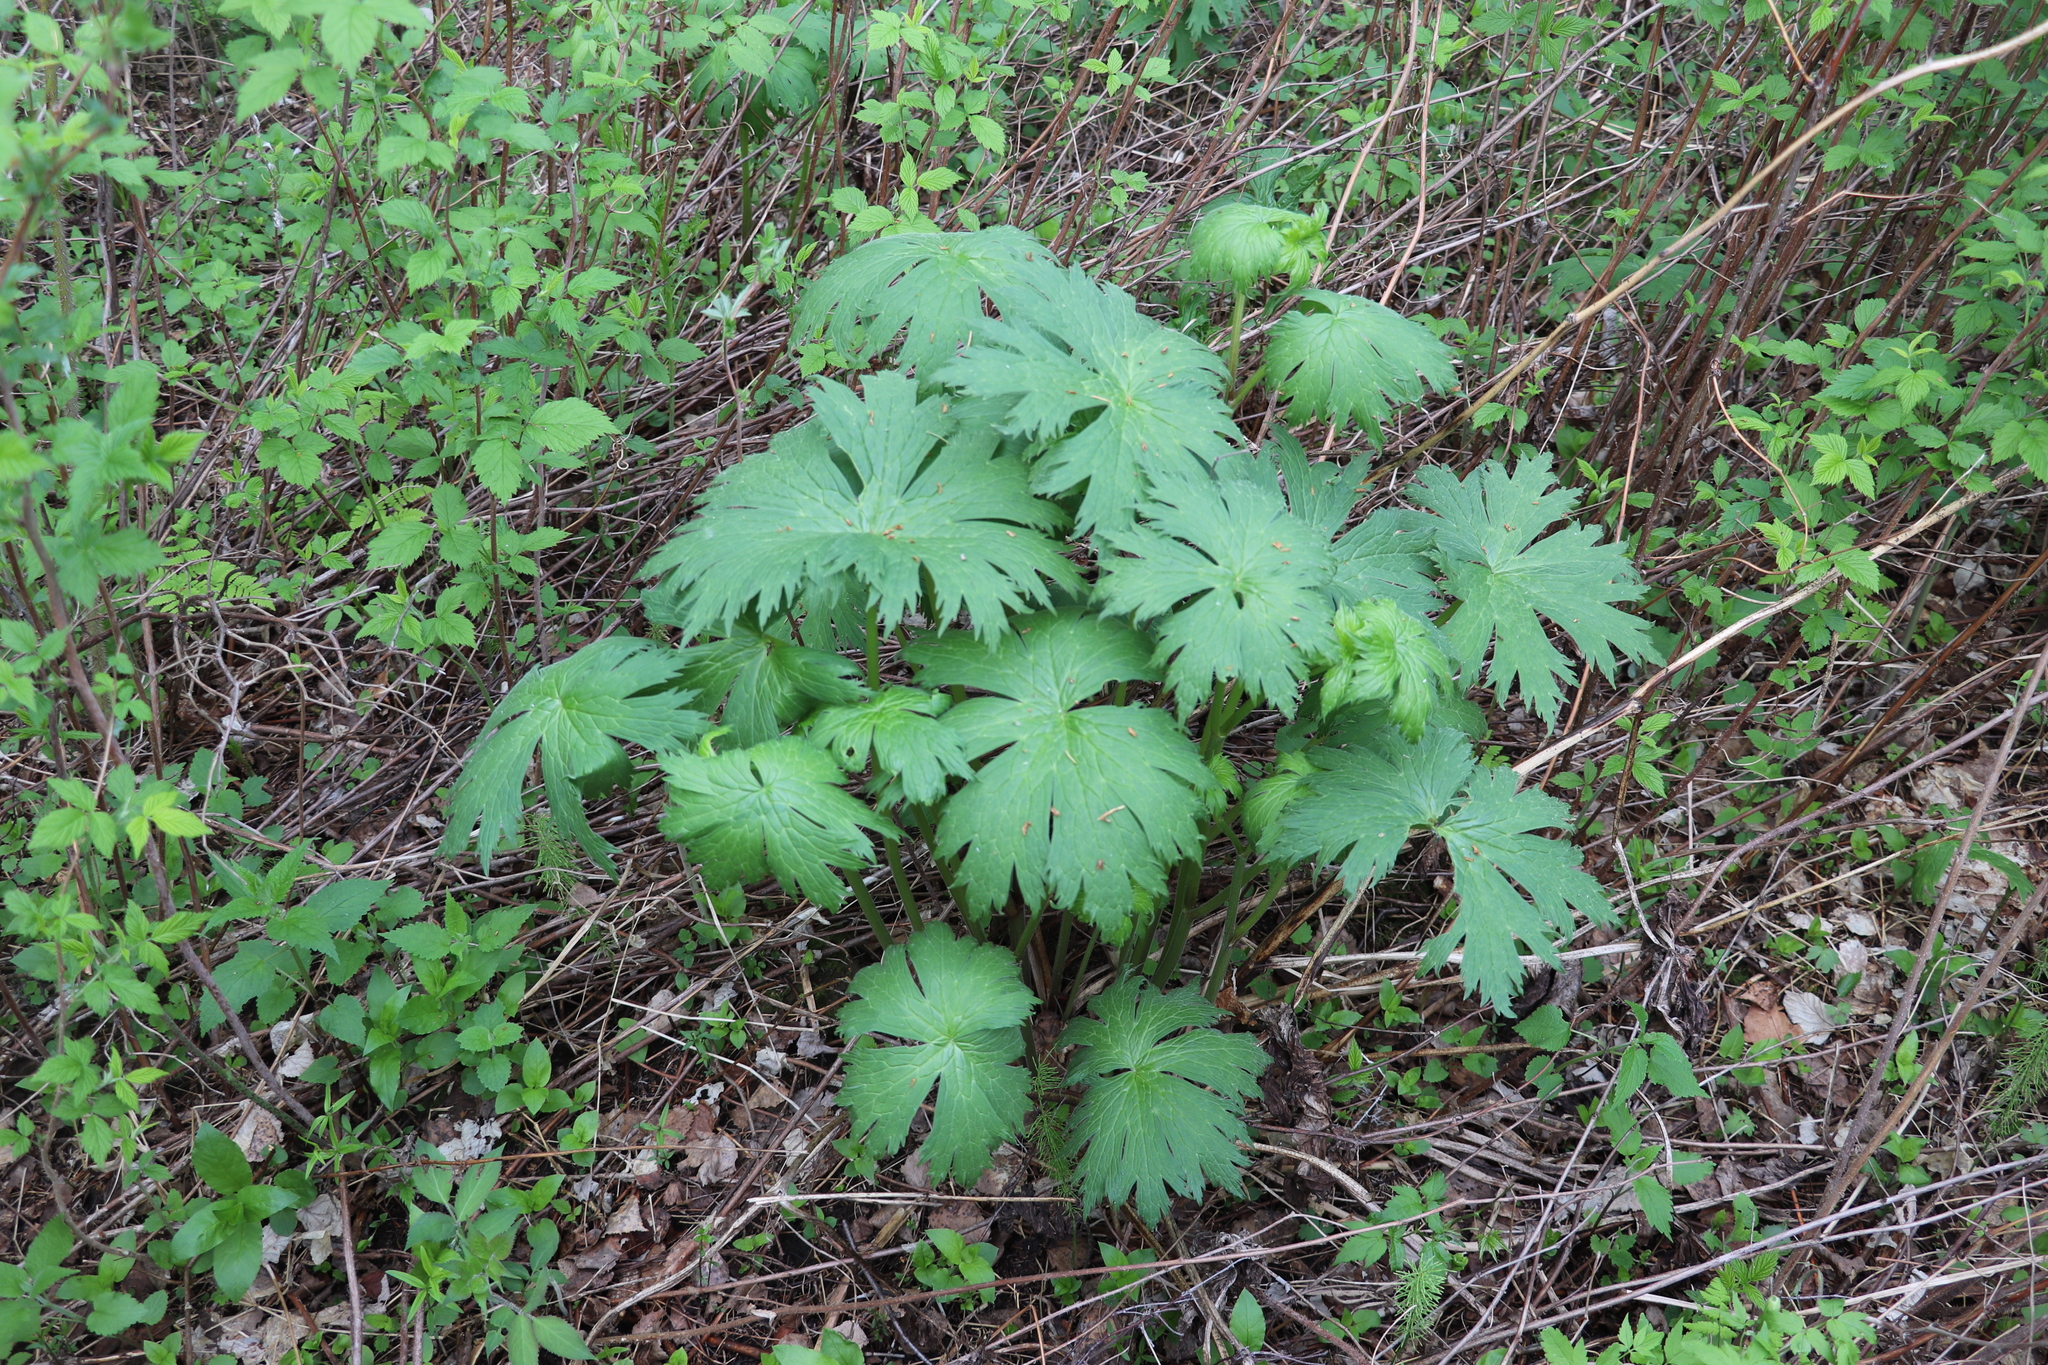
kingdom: Plantae
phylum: Tracheophyta
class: Magnoliopsida
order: Ranunculales
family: Ranunculaceae
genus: Aconitum
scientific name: Aconitum septentrionale
